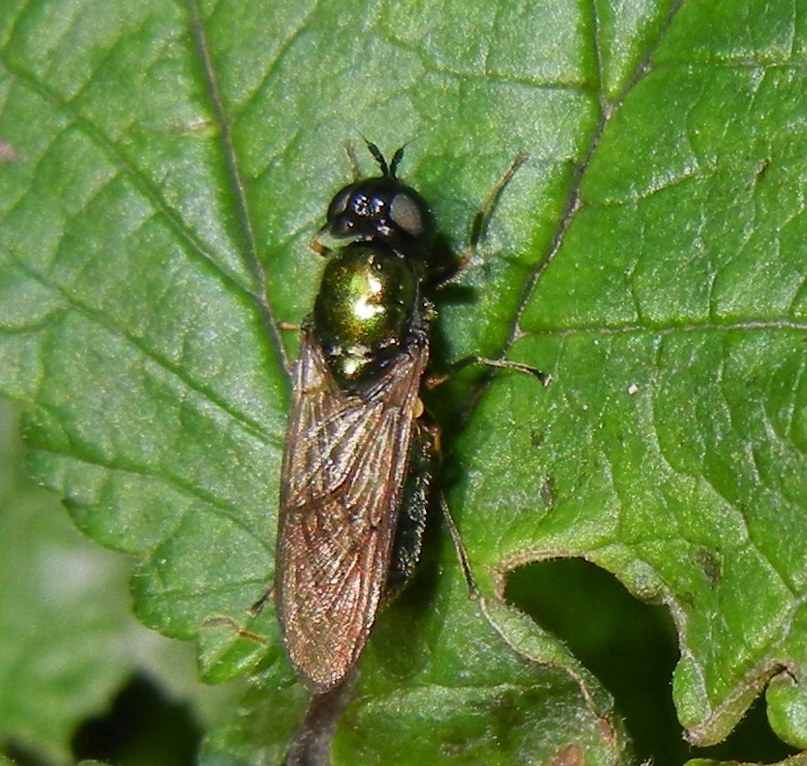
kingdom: Animalia
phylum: Arthropoda
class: Insecta
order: Diptera
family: Stratiomyidae
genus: Chloromyia
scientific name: Chloromyia formosa
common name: Soldier fly
